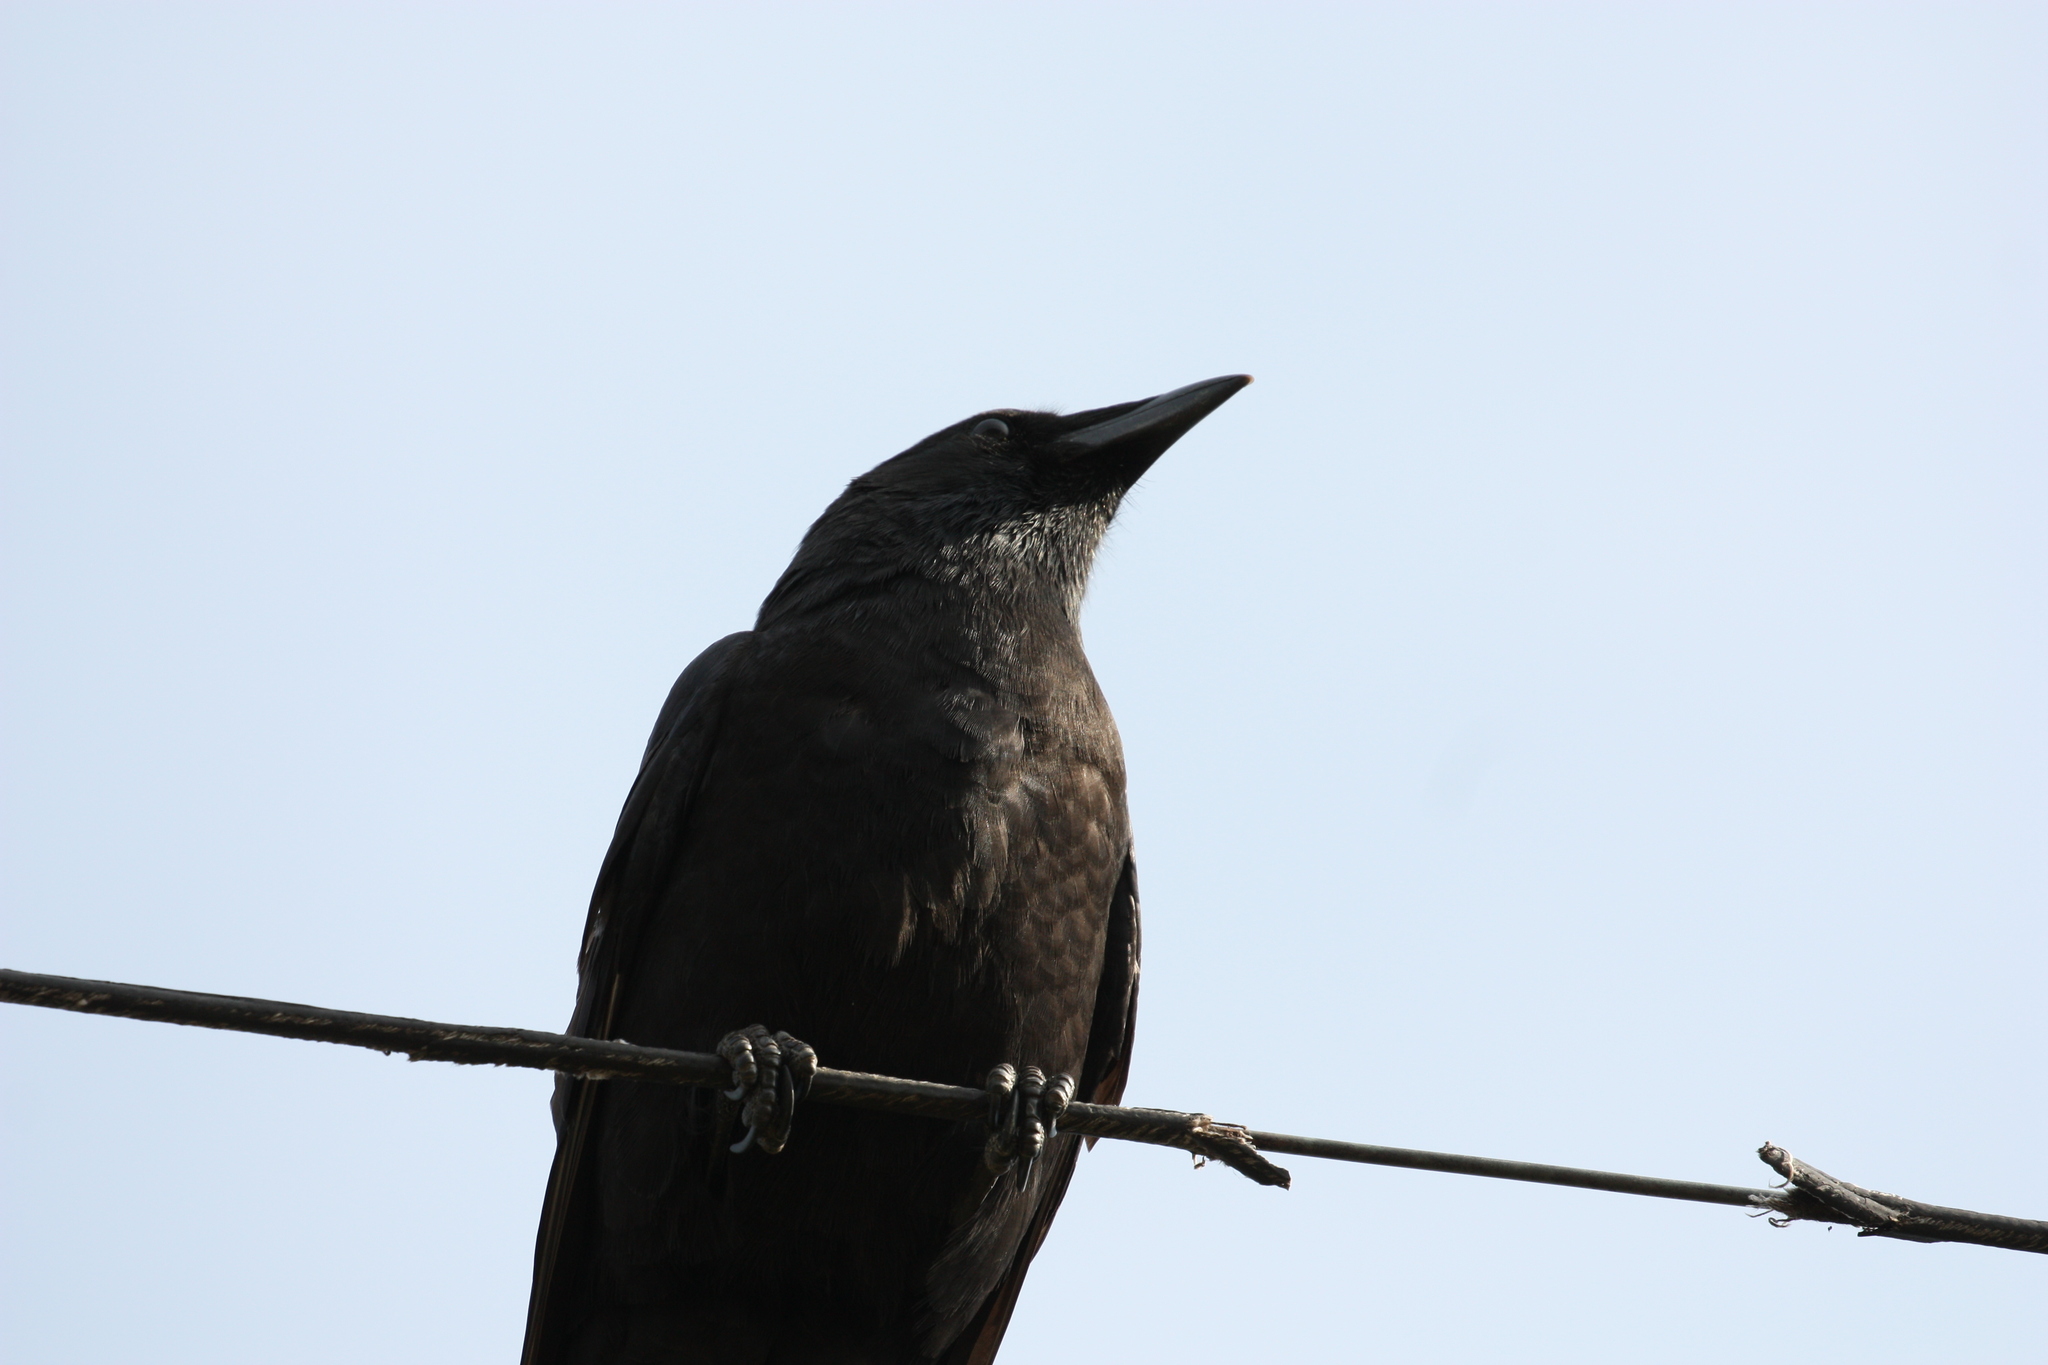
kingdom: Animalia
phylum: Chordata
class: Aves
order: Passeriformes
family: Corvidae
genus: Corvus
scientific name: Corvus brachyrhynchos
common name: American crow
